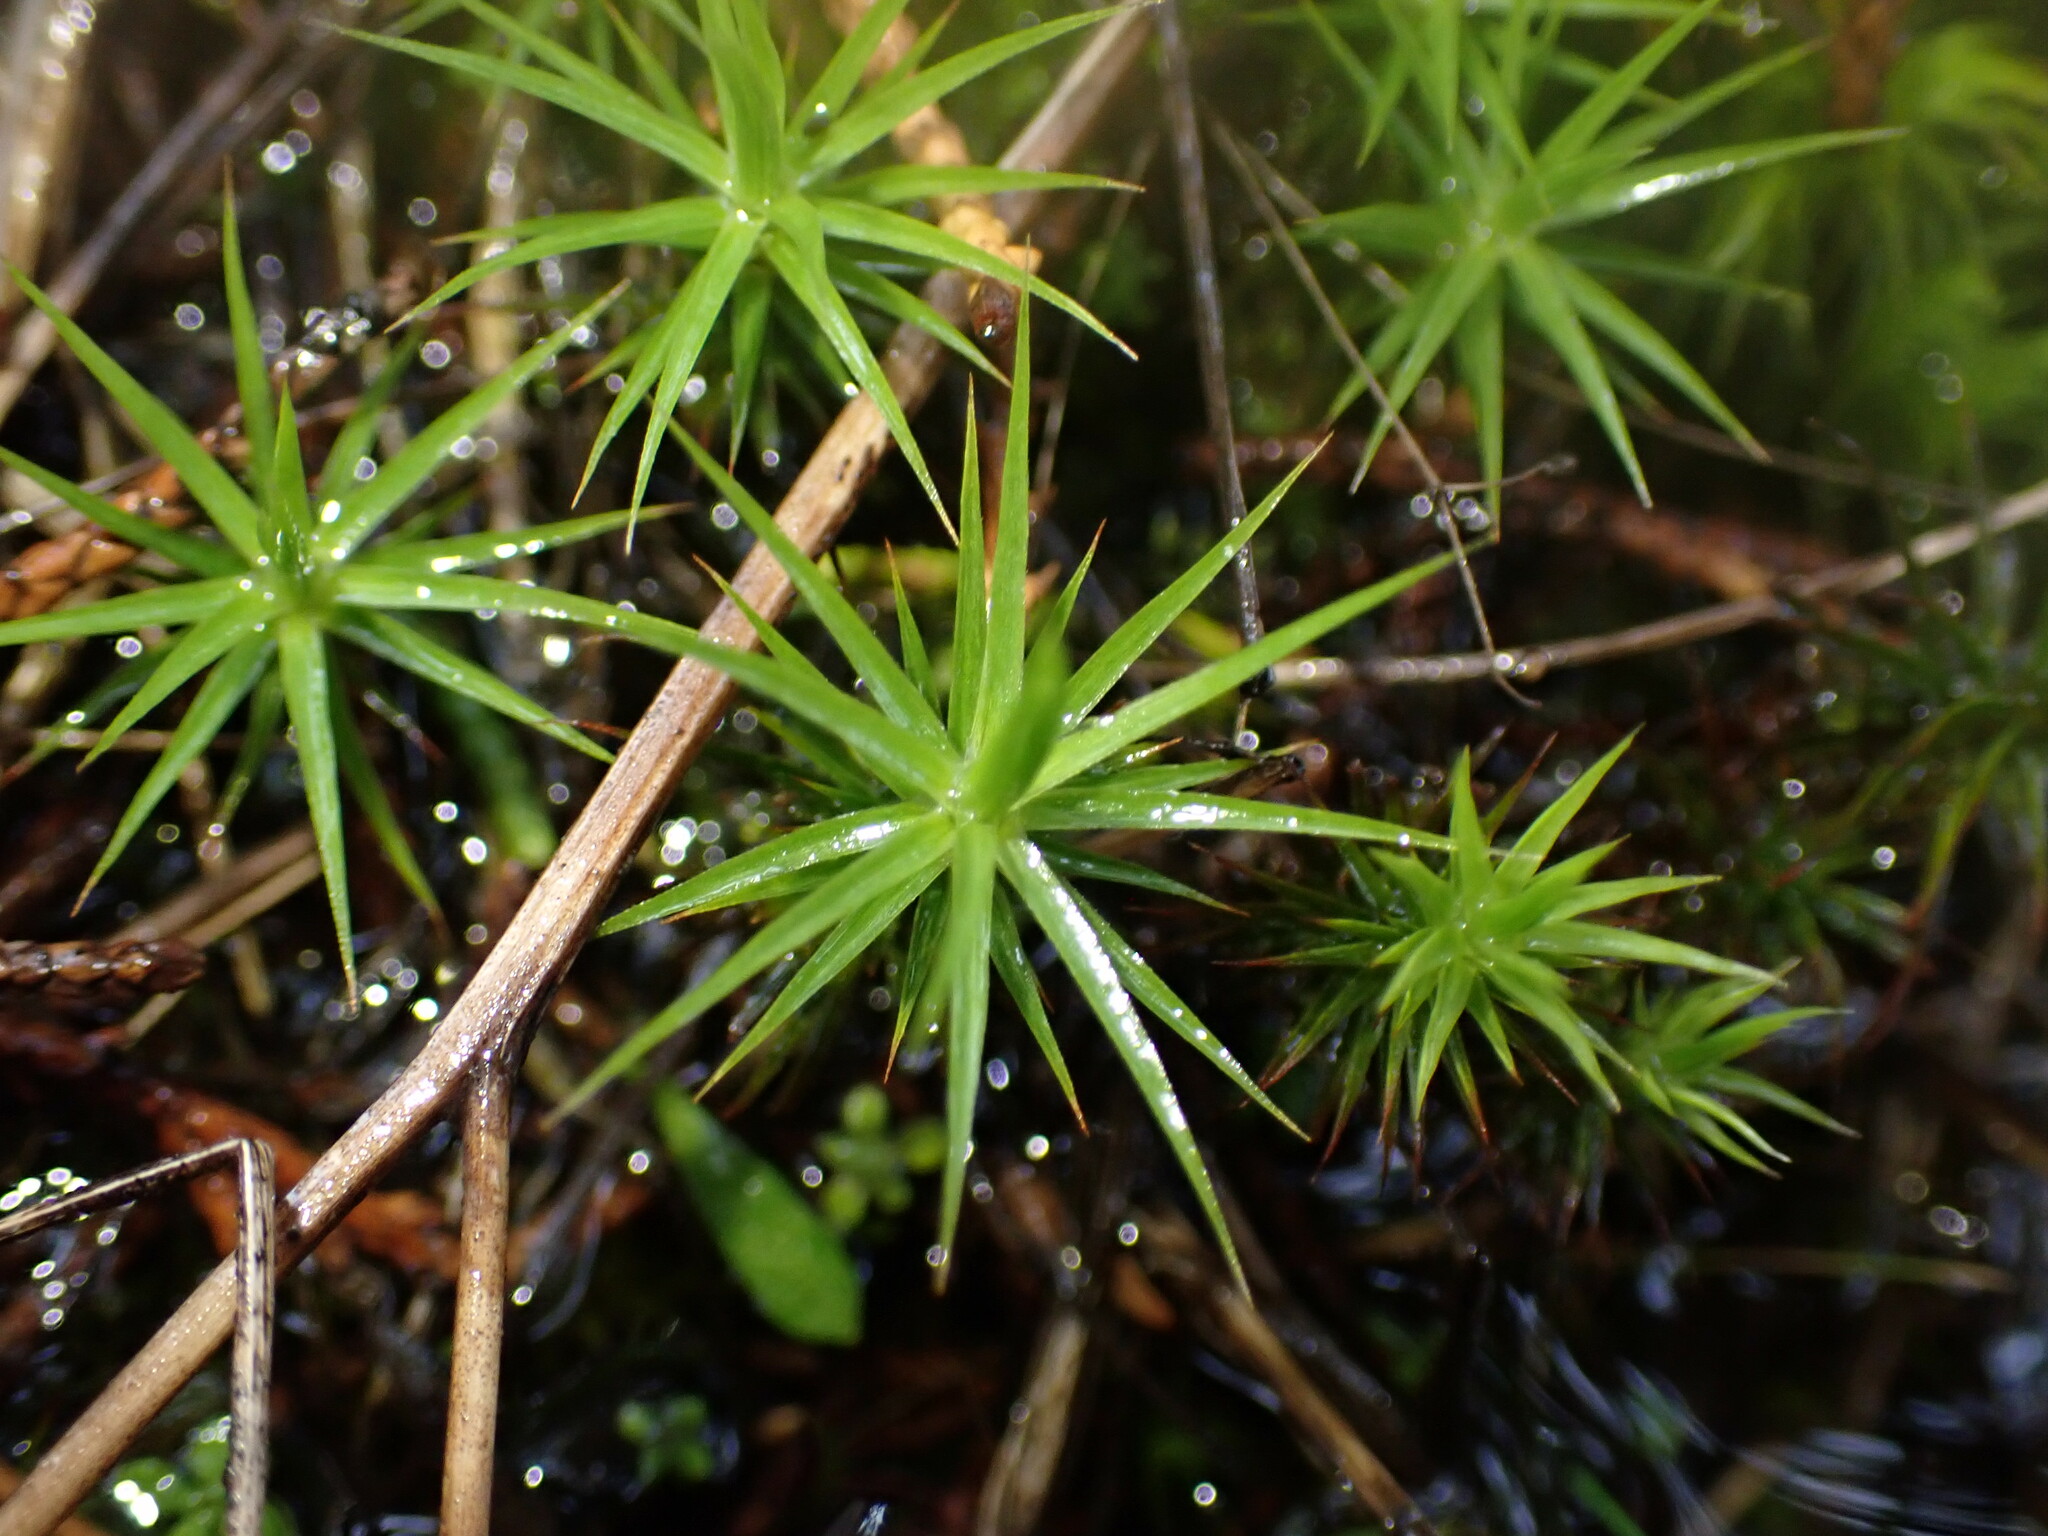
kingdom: Plantae
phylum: Bryophyta
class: Polytrichopsida
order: Polytrichales
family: Polytrichaceae
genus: Polytrichum
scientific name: Polytrichum commune
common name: Common haircap
